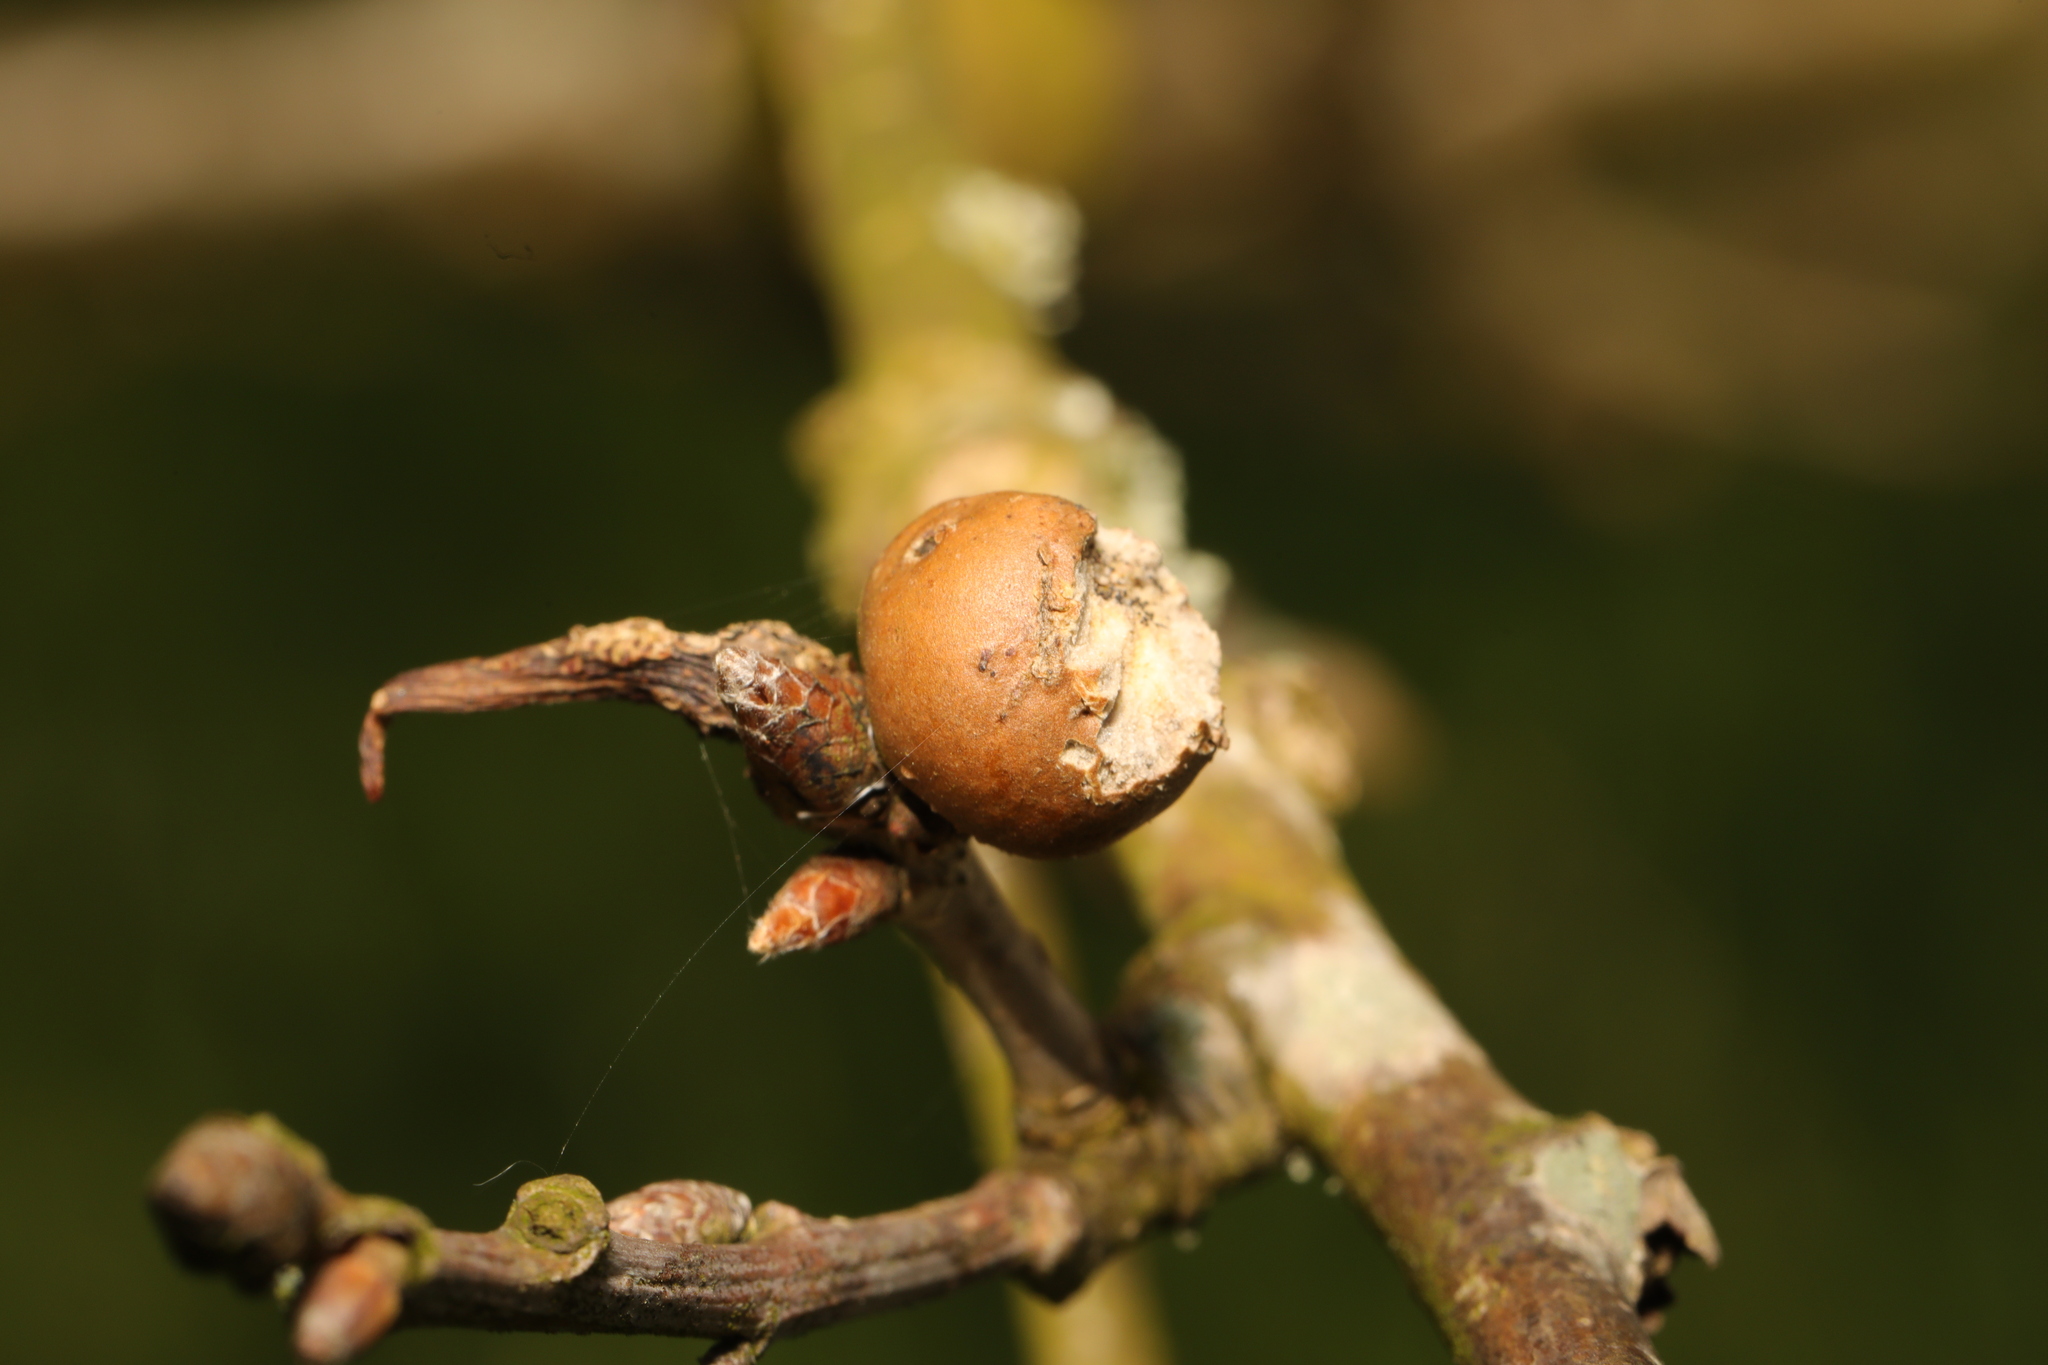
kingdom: Animalia
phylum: Arthropoda
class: Insecta
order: Hymenoptera
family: Cynipidae
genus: Andricus
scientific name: Andricus kollari
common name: Marble gall
